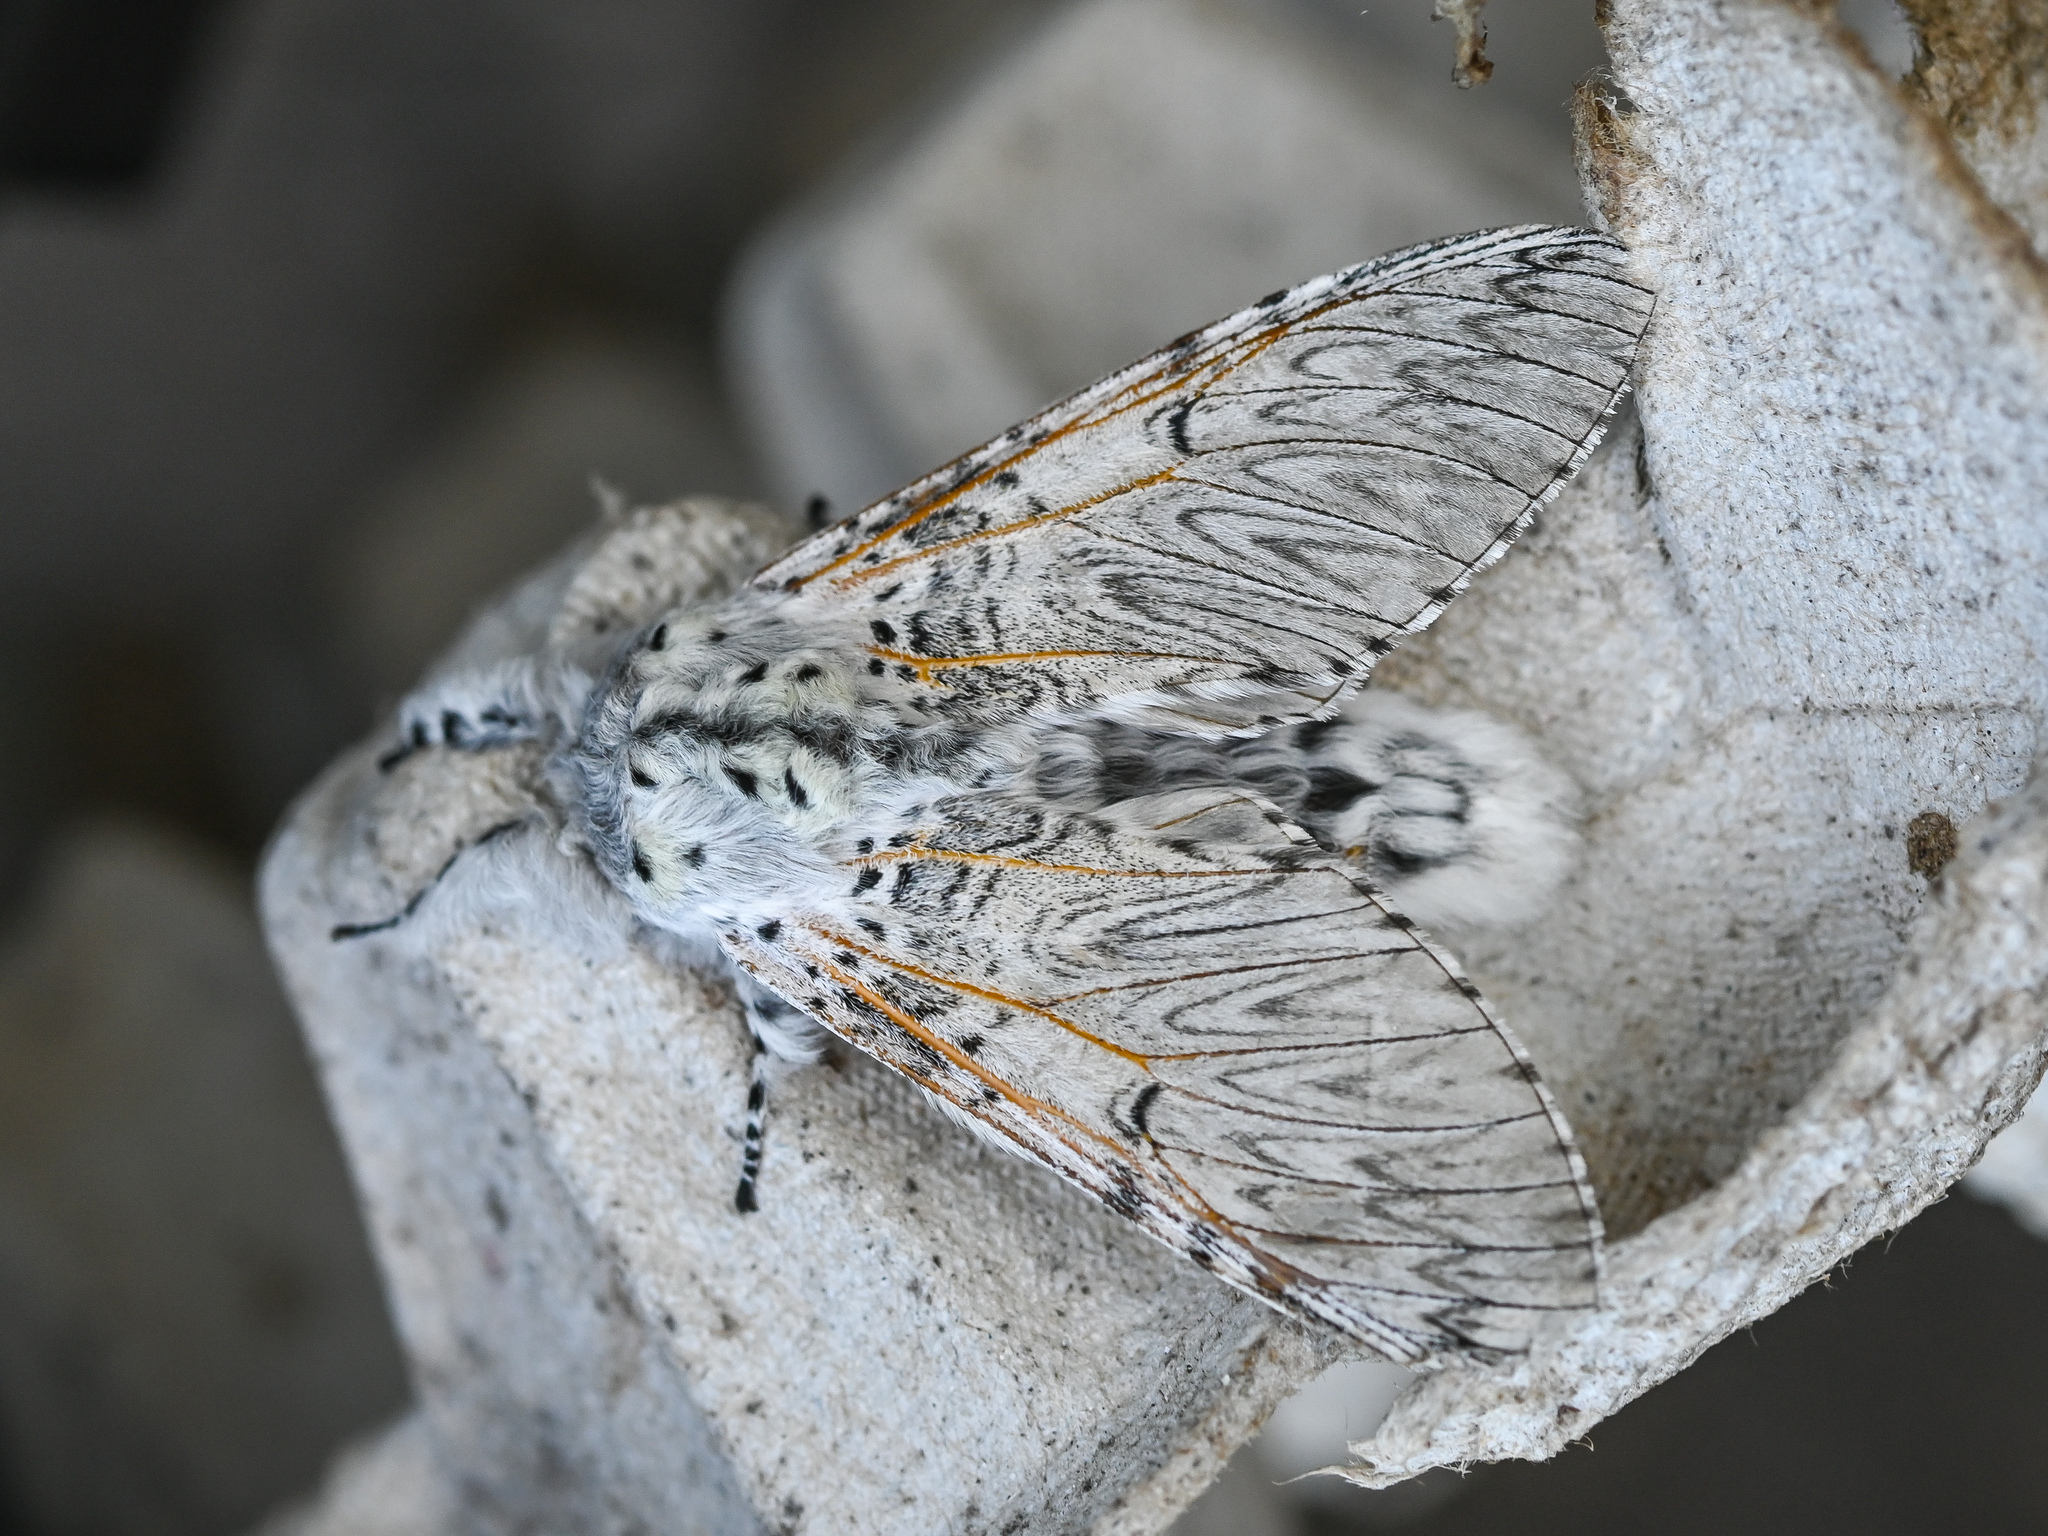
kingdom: Animalia
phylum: Arthropoda
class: Insecta
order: Lepidoptera
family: Notodontidae
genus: Cerura
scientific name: Cerura vinula
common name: Puss moth
